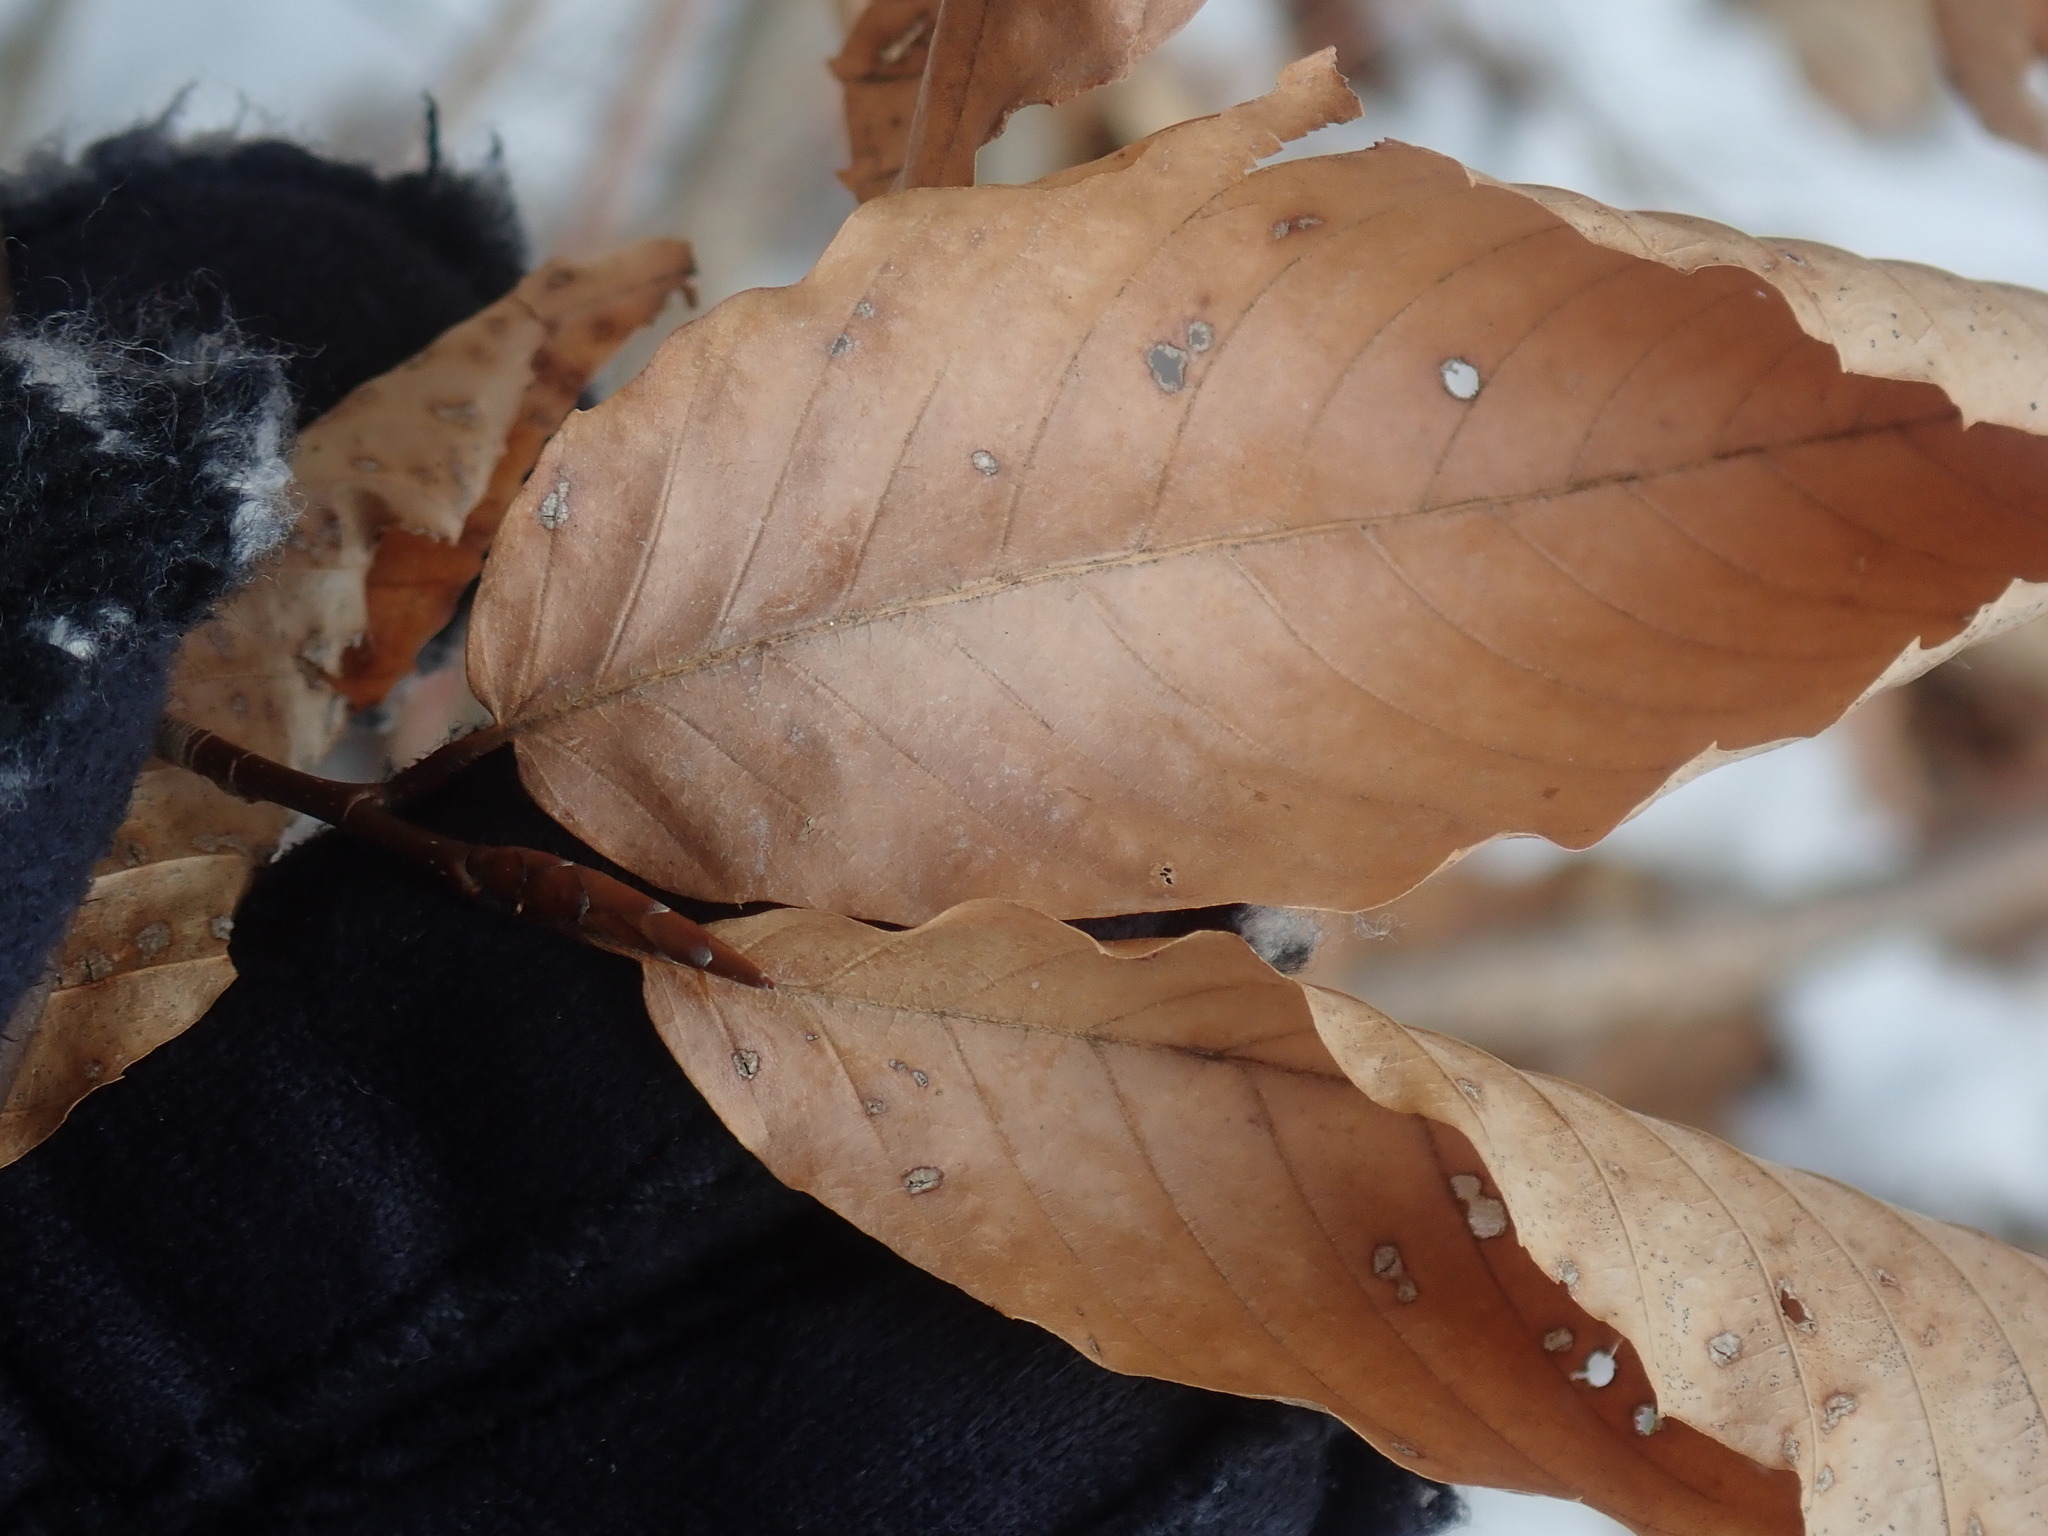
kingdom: Plantae
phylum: Tracheophyta
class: Magnoliopsida
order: Fagales
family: Fagaceae
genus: Fagus
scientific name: Fagus grandifolia
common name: American beech
